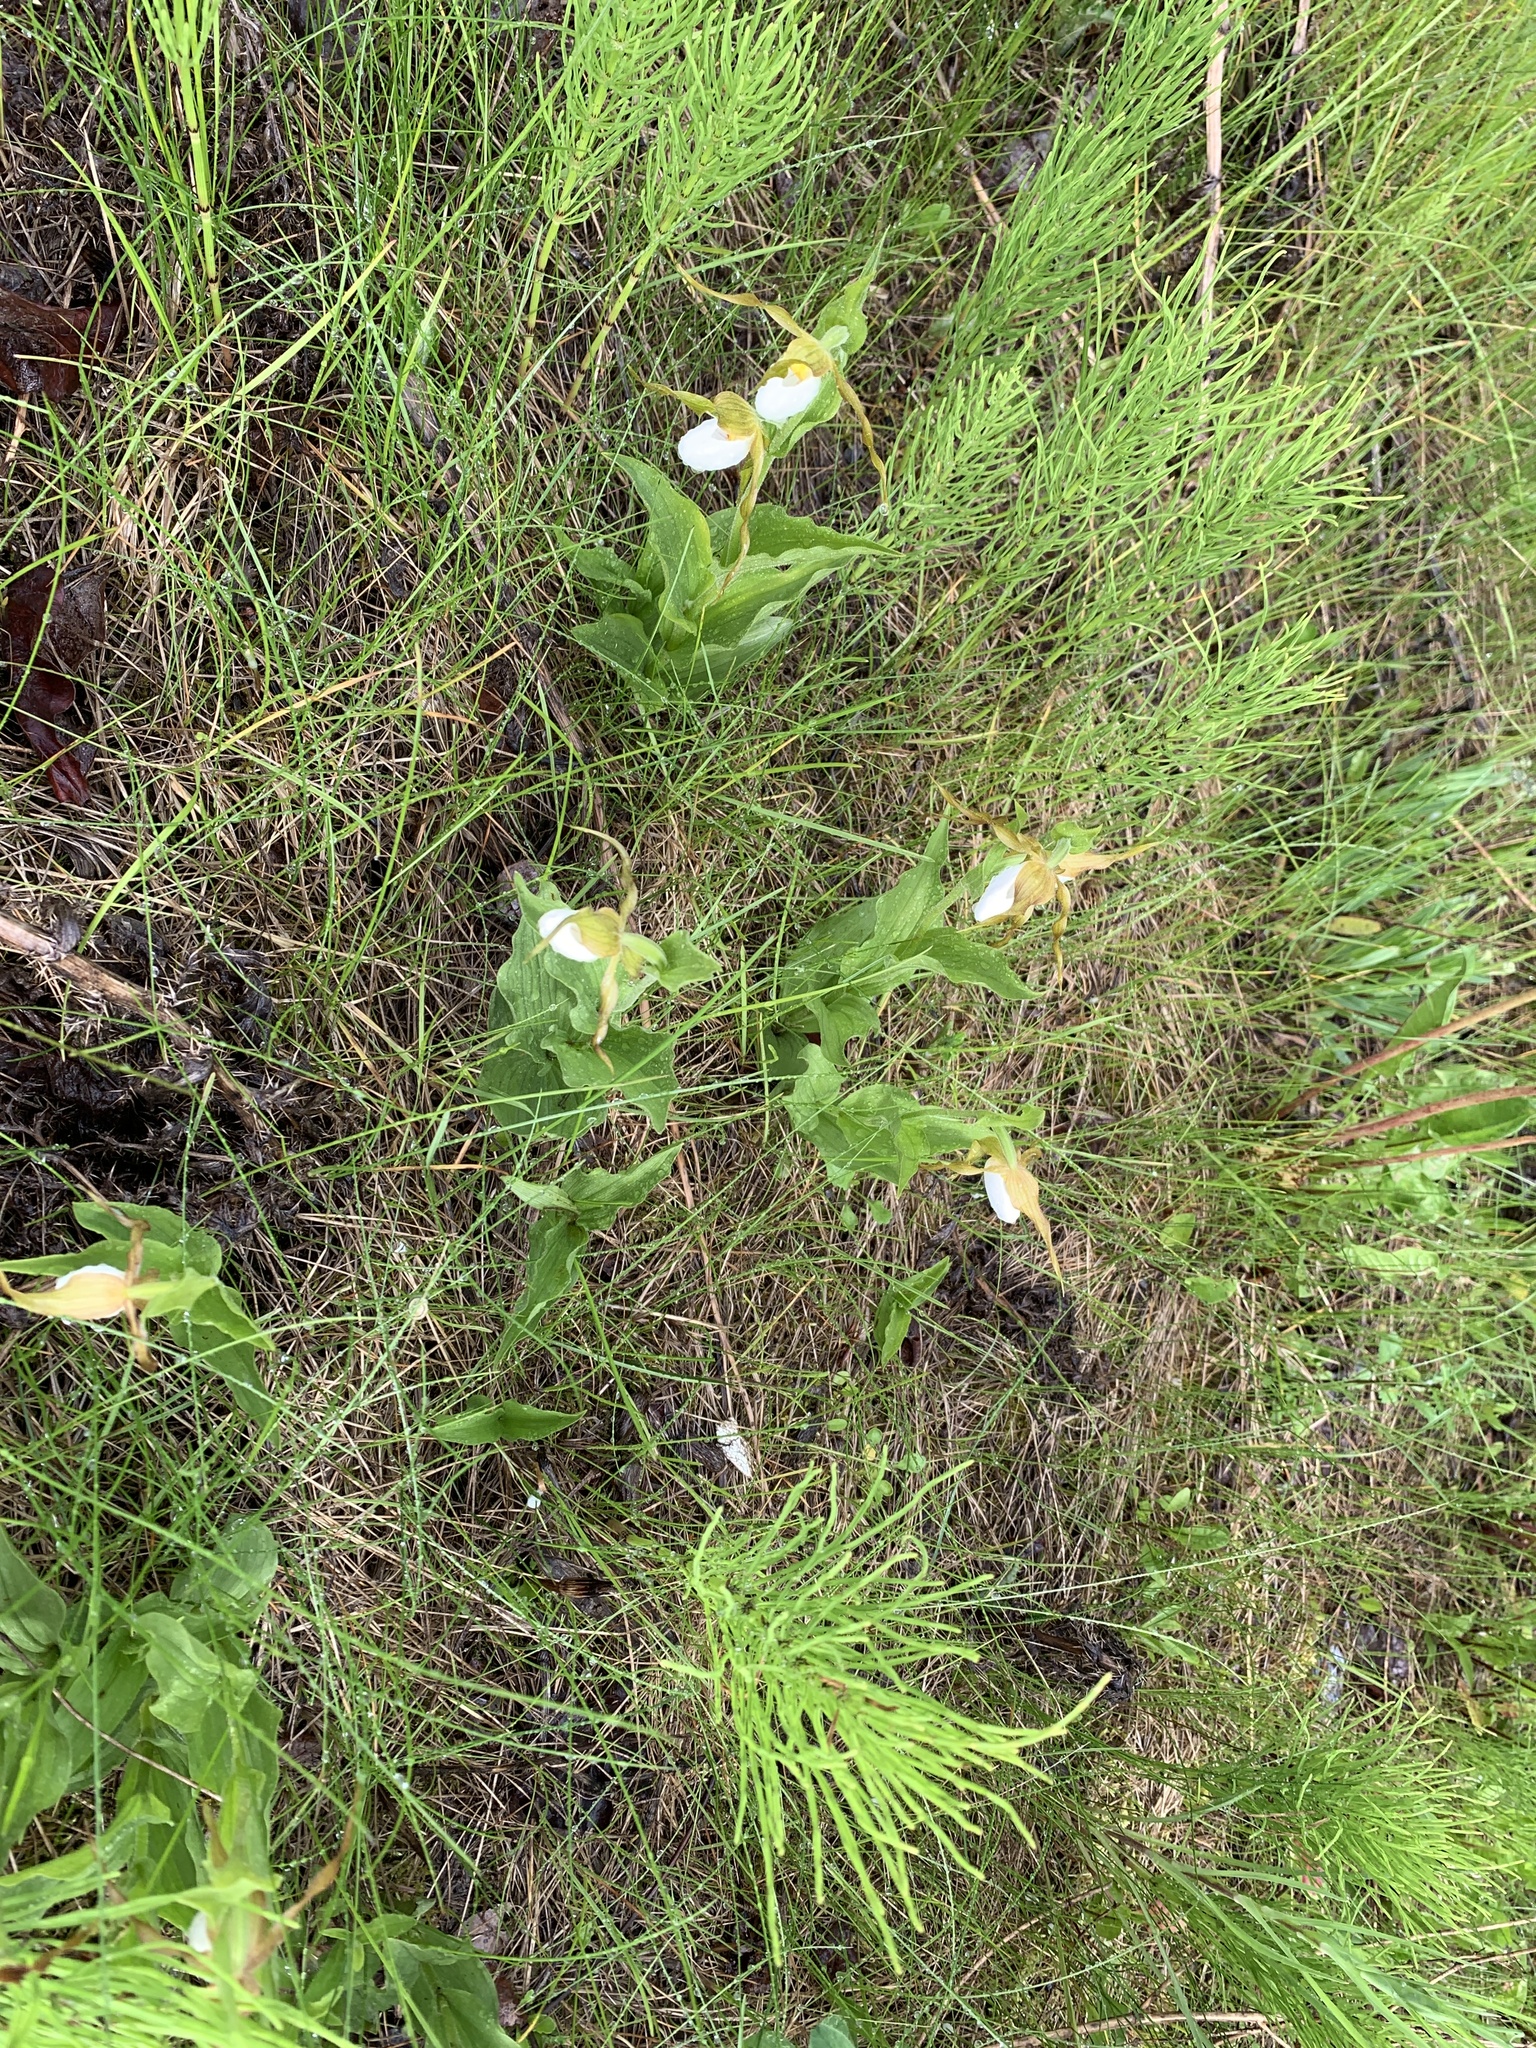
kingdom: Plantae
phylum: Tracheophyta
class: Liliopsida
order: Asparagales
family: Orchidaceae
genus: Cypripedium
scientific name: Cypripedium montanum
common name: Mountain lady's-slipper
